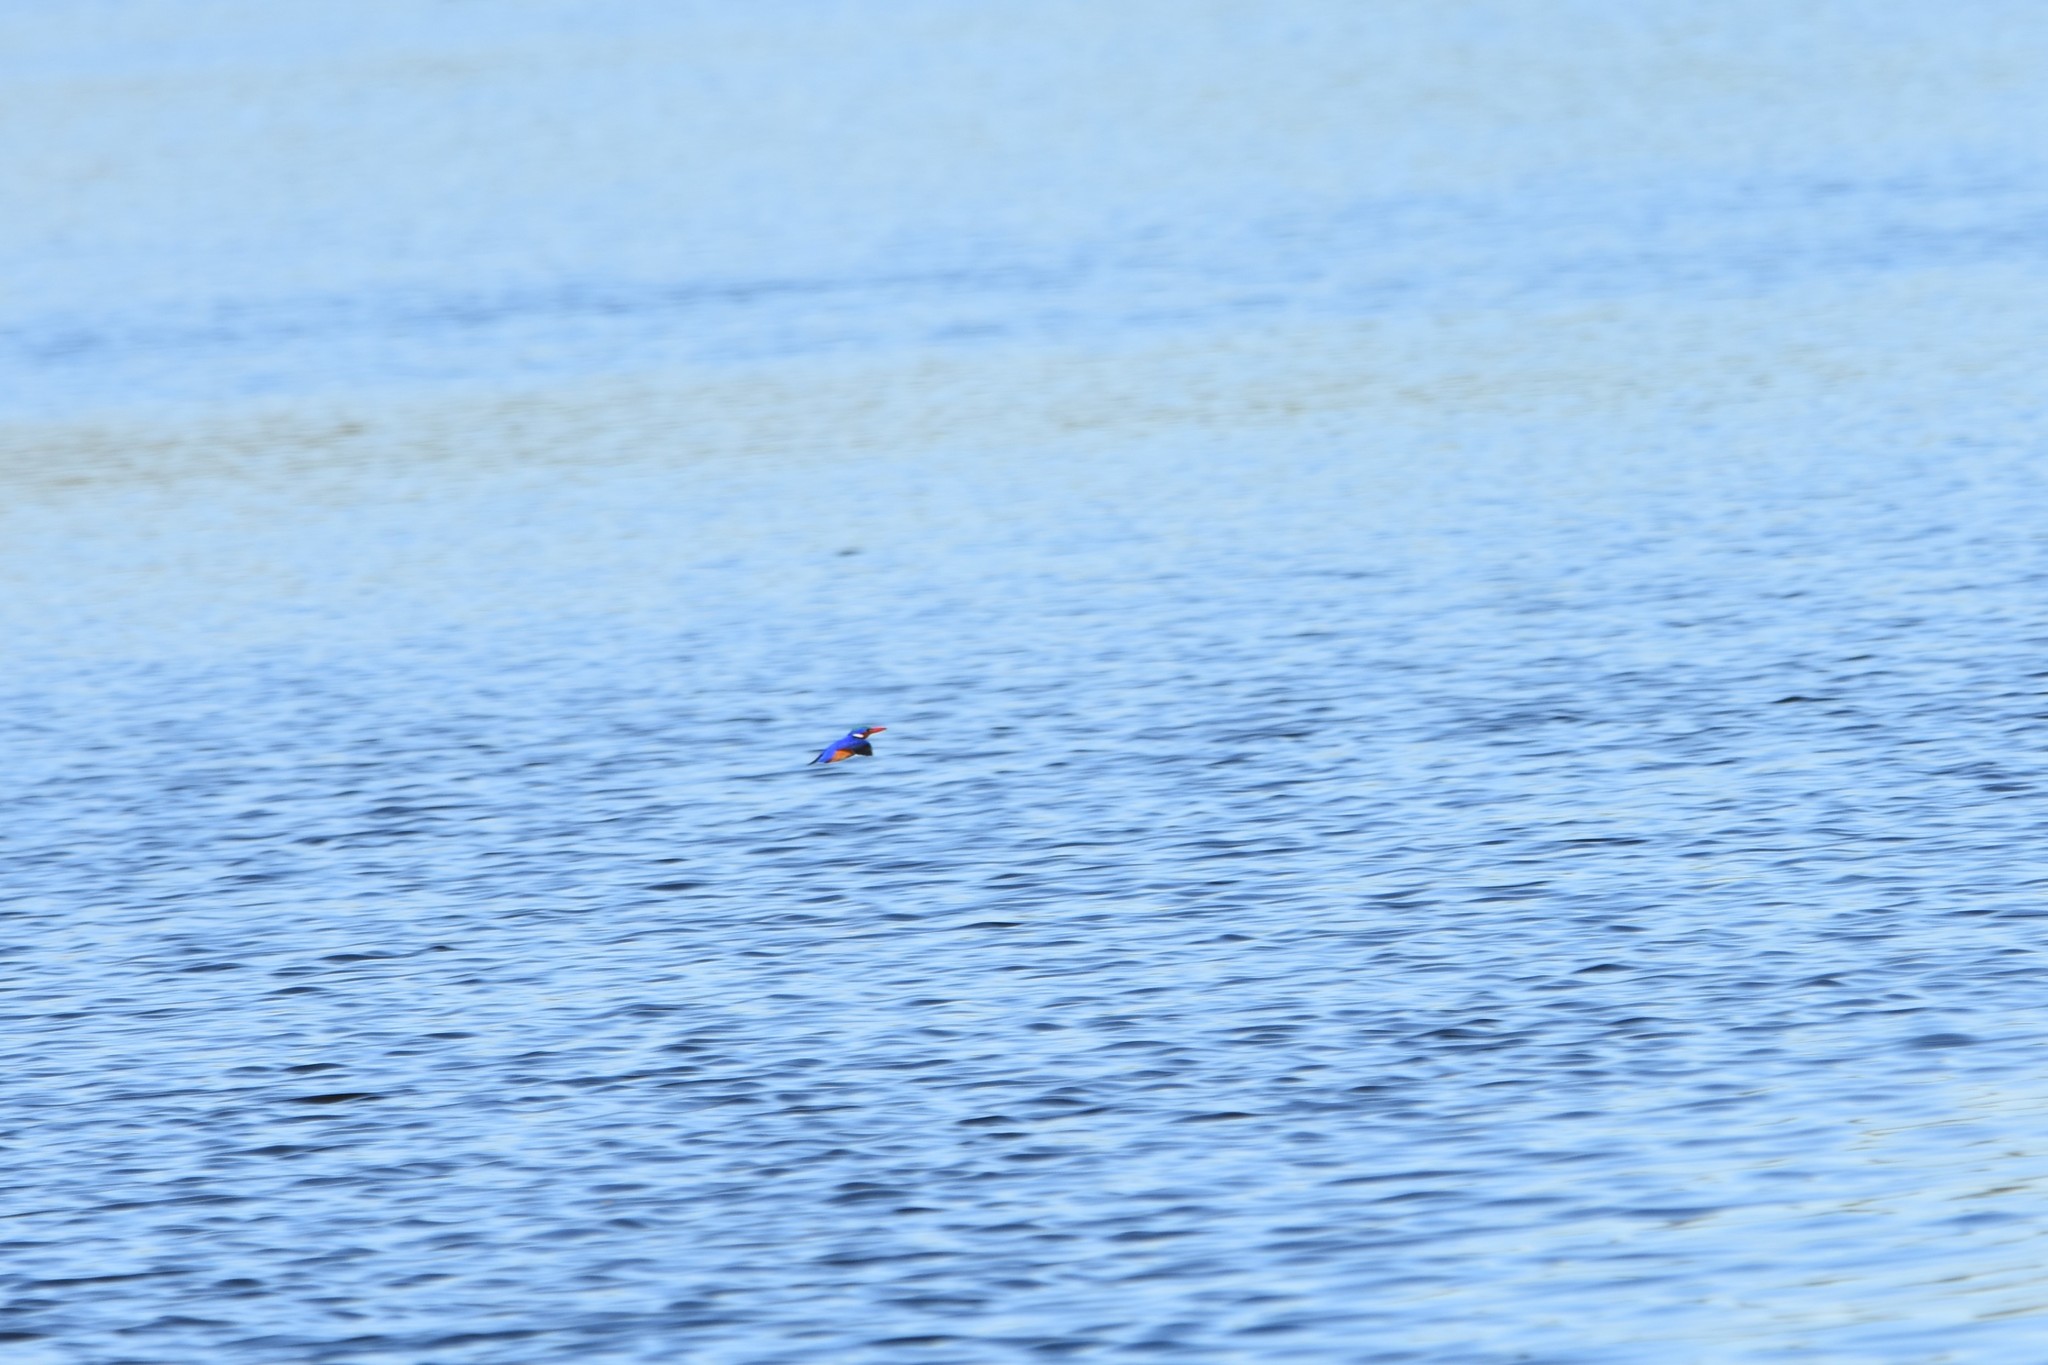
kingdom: Animalia
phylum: Chordata
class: Aves
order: Coraciiformes
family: Alcedinidae
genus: Corythornis
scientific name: Corythornis cristatus
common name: Malachite kingfisher
